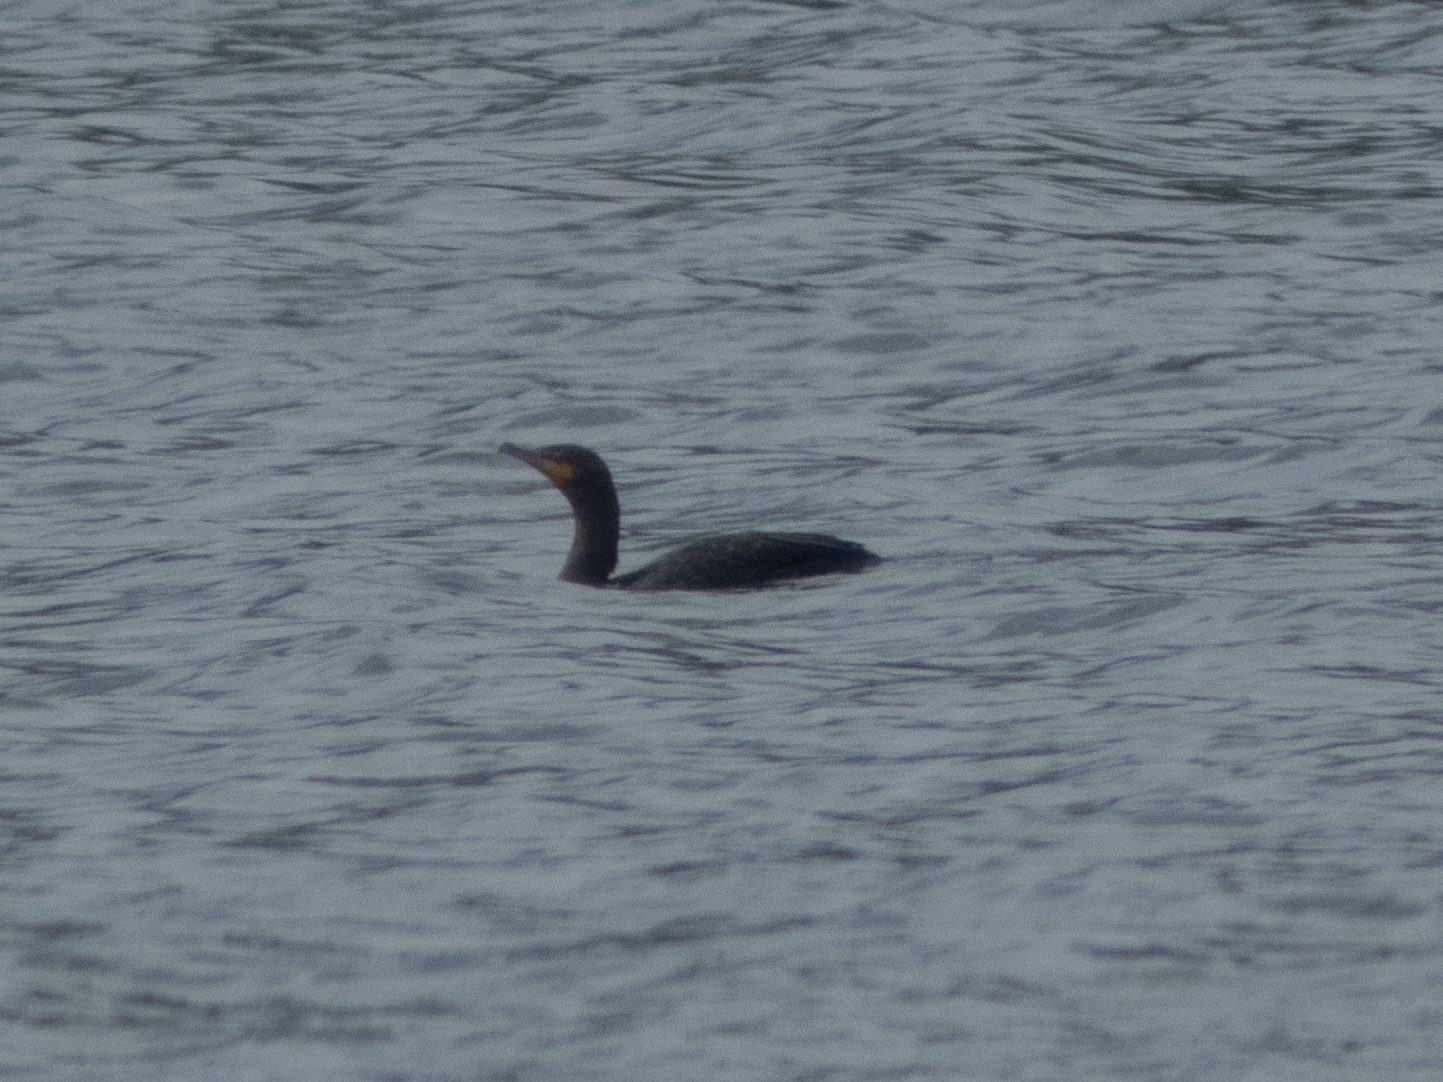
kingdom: Animalia
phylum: Chordata
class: Aves
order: Suliformes
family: Phalacrocoracidae
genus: Phalacrocorax
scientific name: Phalacrocorax auritus
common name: Double-crested cormorant
